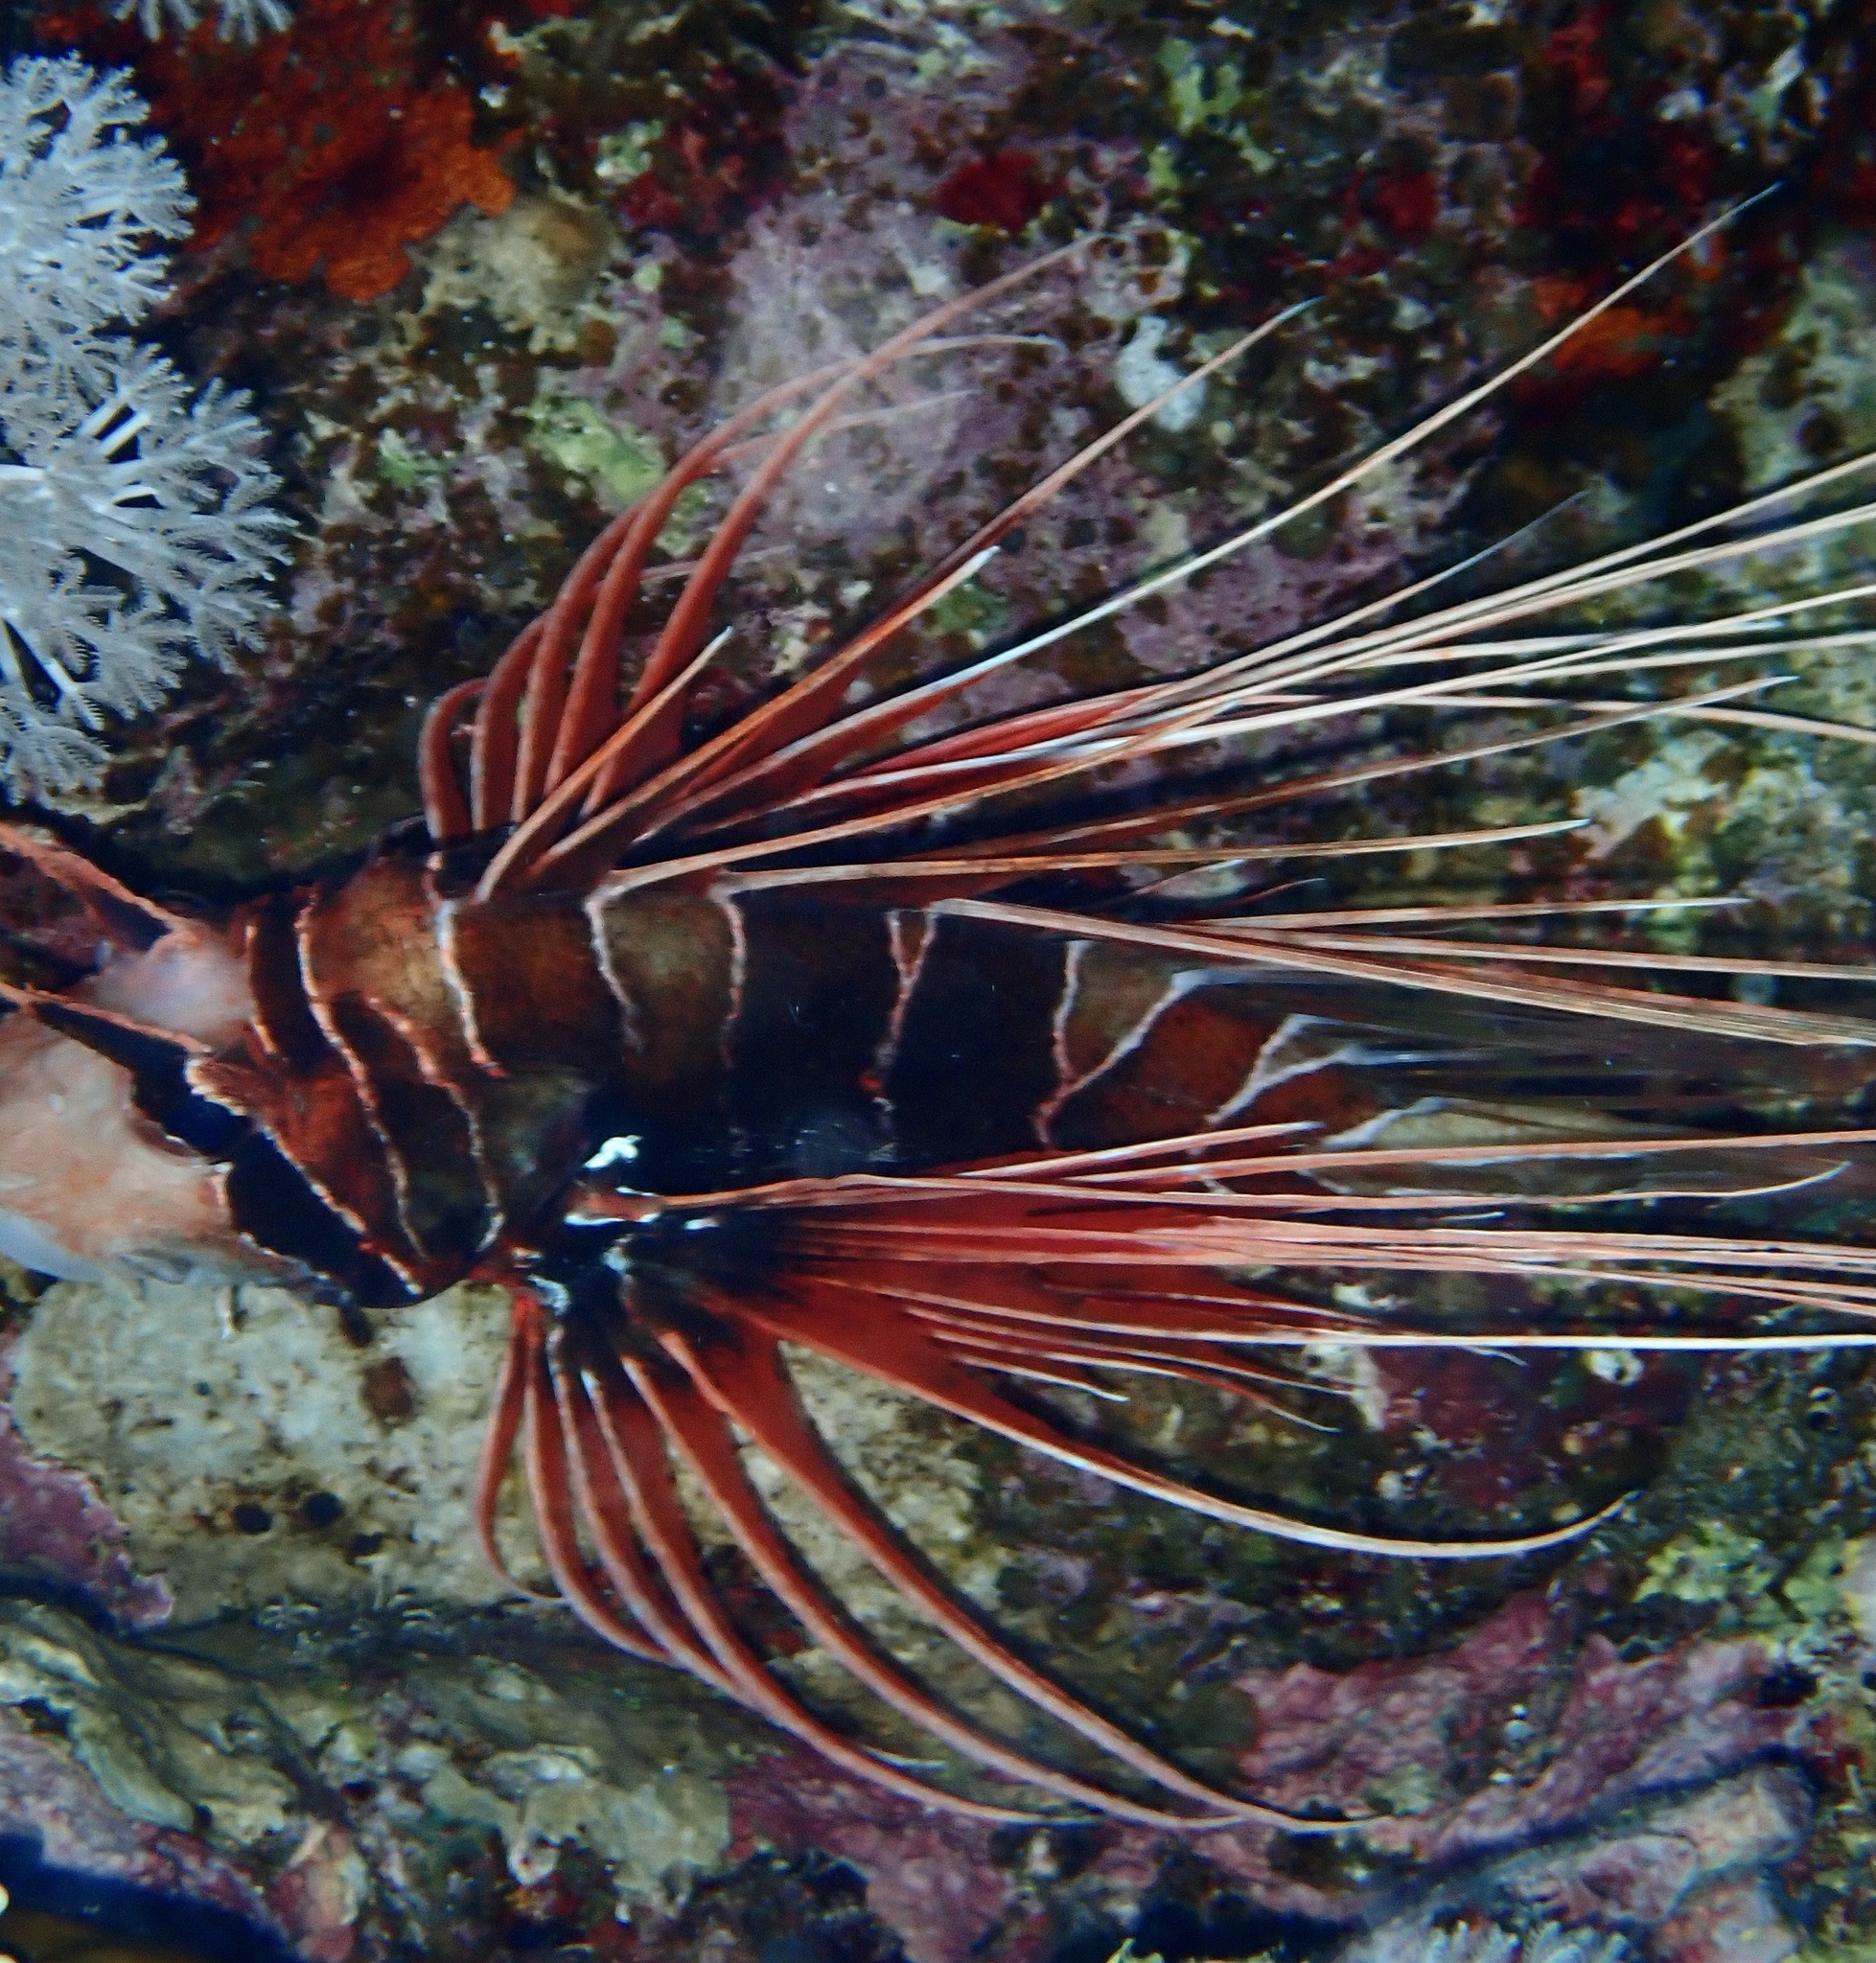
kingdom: Animalia
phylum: Chordata
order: Scorpaeniformes
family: Scorpaenidae
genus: Pterois
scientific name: Pterois cincta
